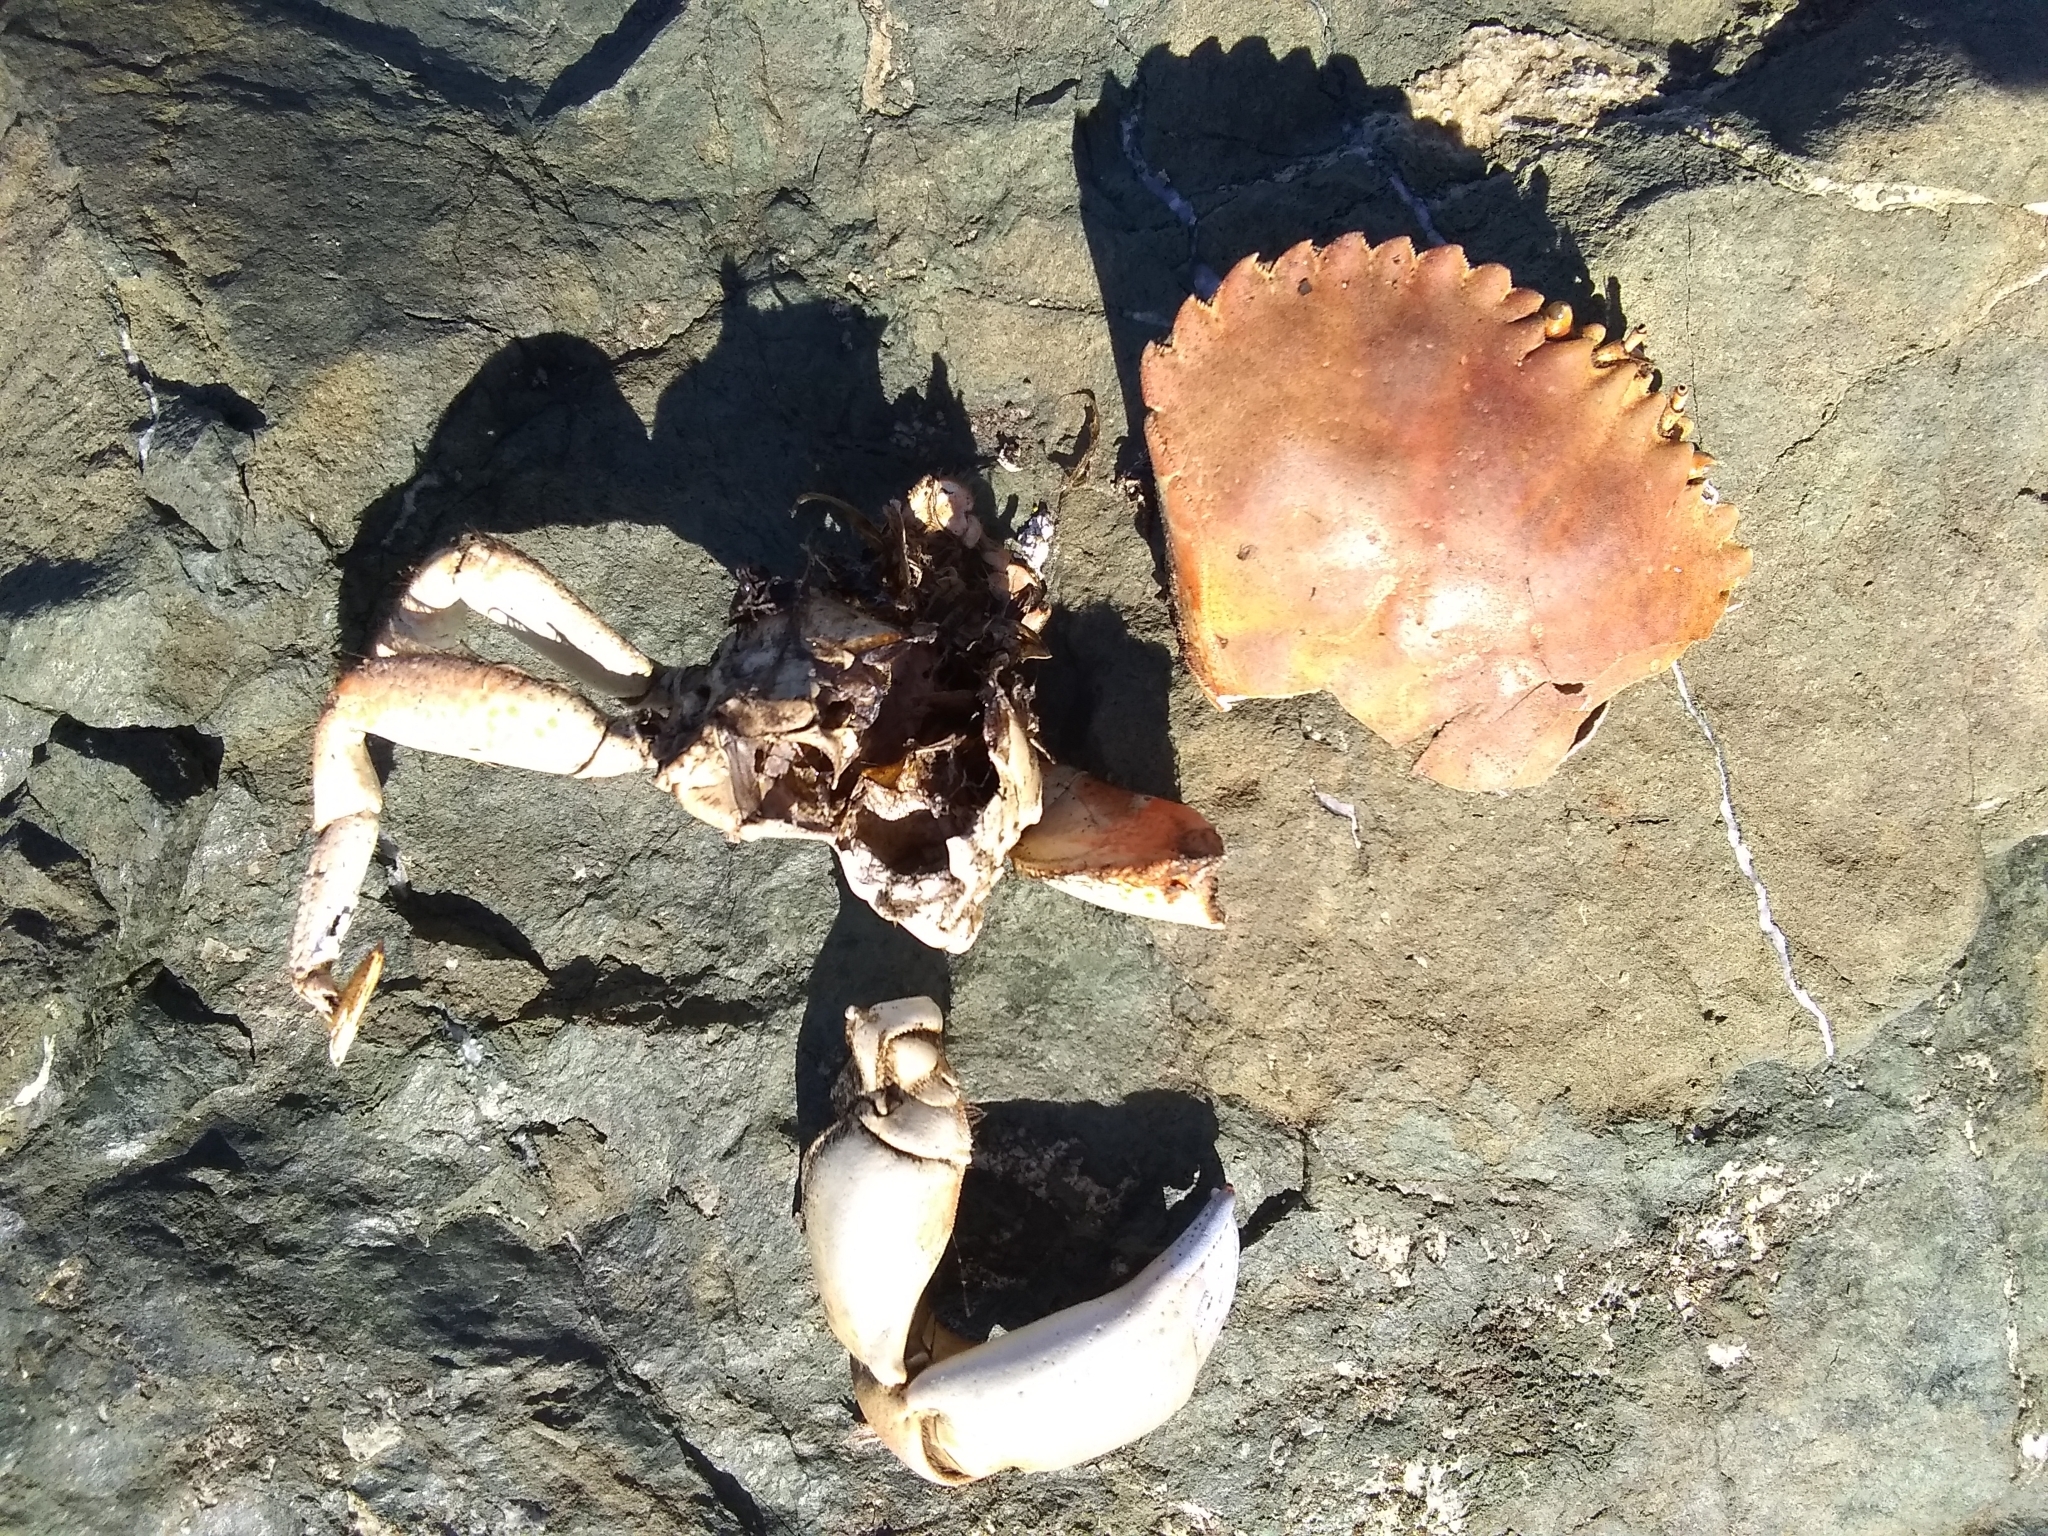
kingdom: Animalia
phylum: Arthropoda
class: Malacostraca
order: Decapoda
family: Cancridae
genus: Metacarcinus
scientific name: Metacarcinus anthonyi
